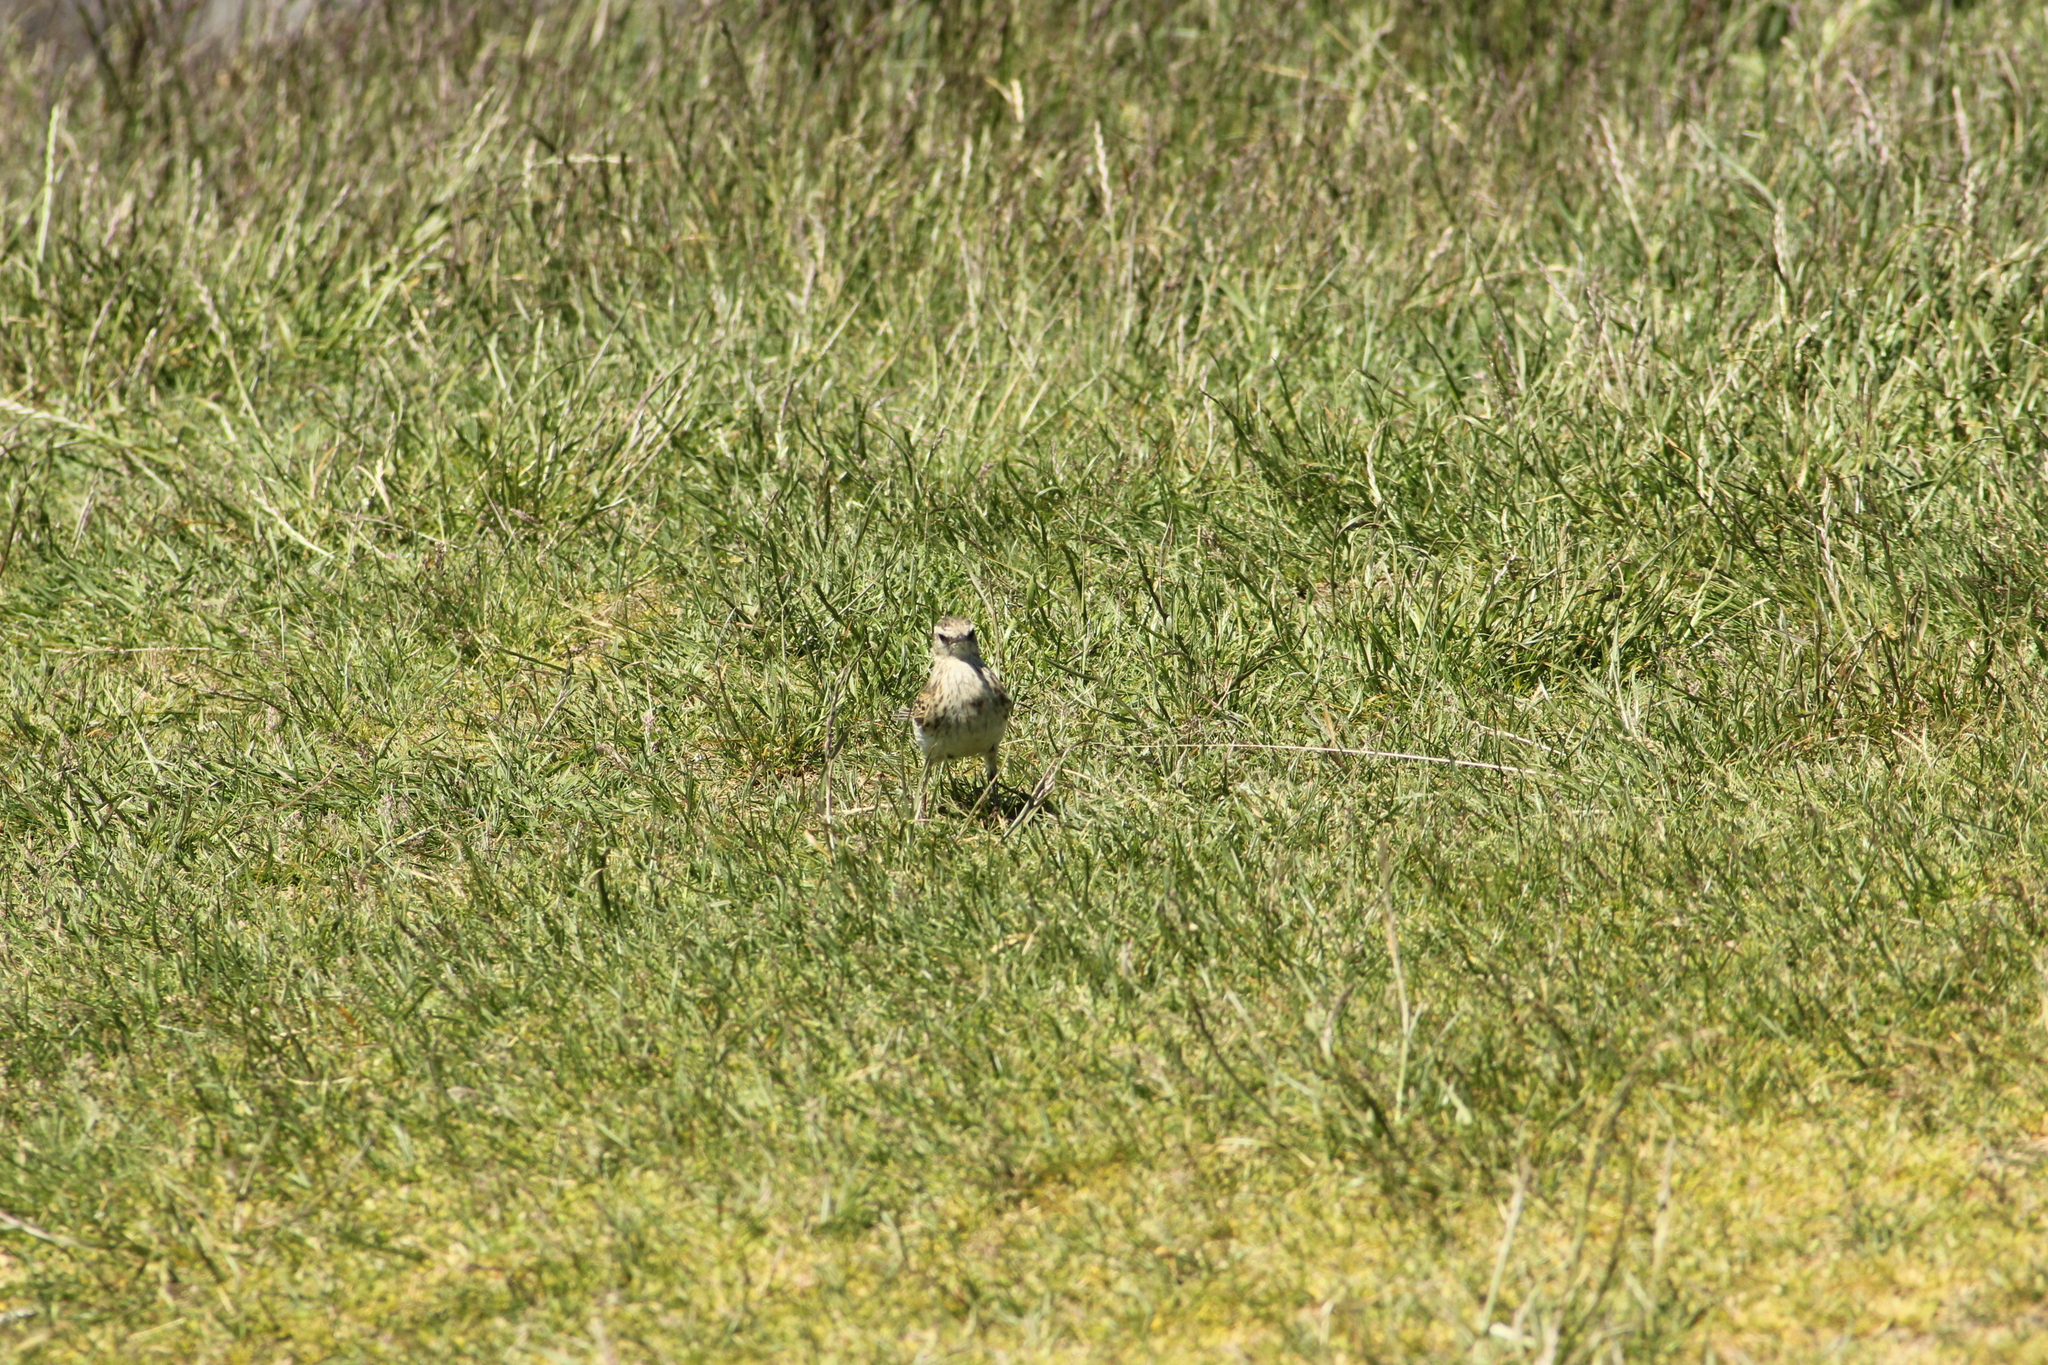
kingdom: Animalia
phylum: Chordata
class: Aves
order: Passeriformes
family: Motacillidae
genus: Anthus
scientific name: Anthus novaeseelandiae
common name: New zealand pipit
